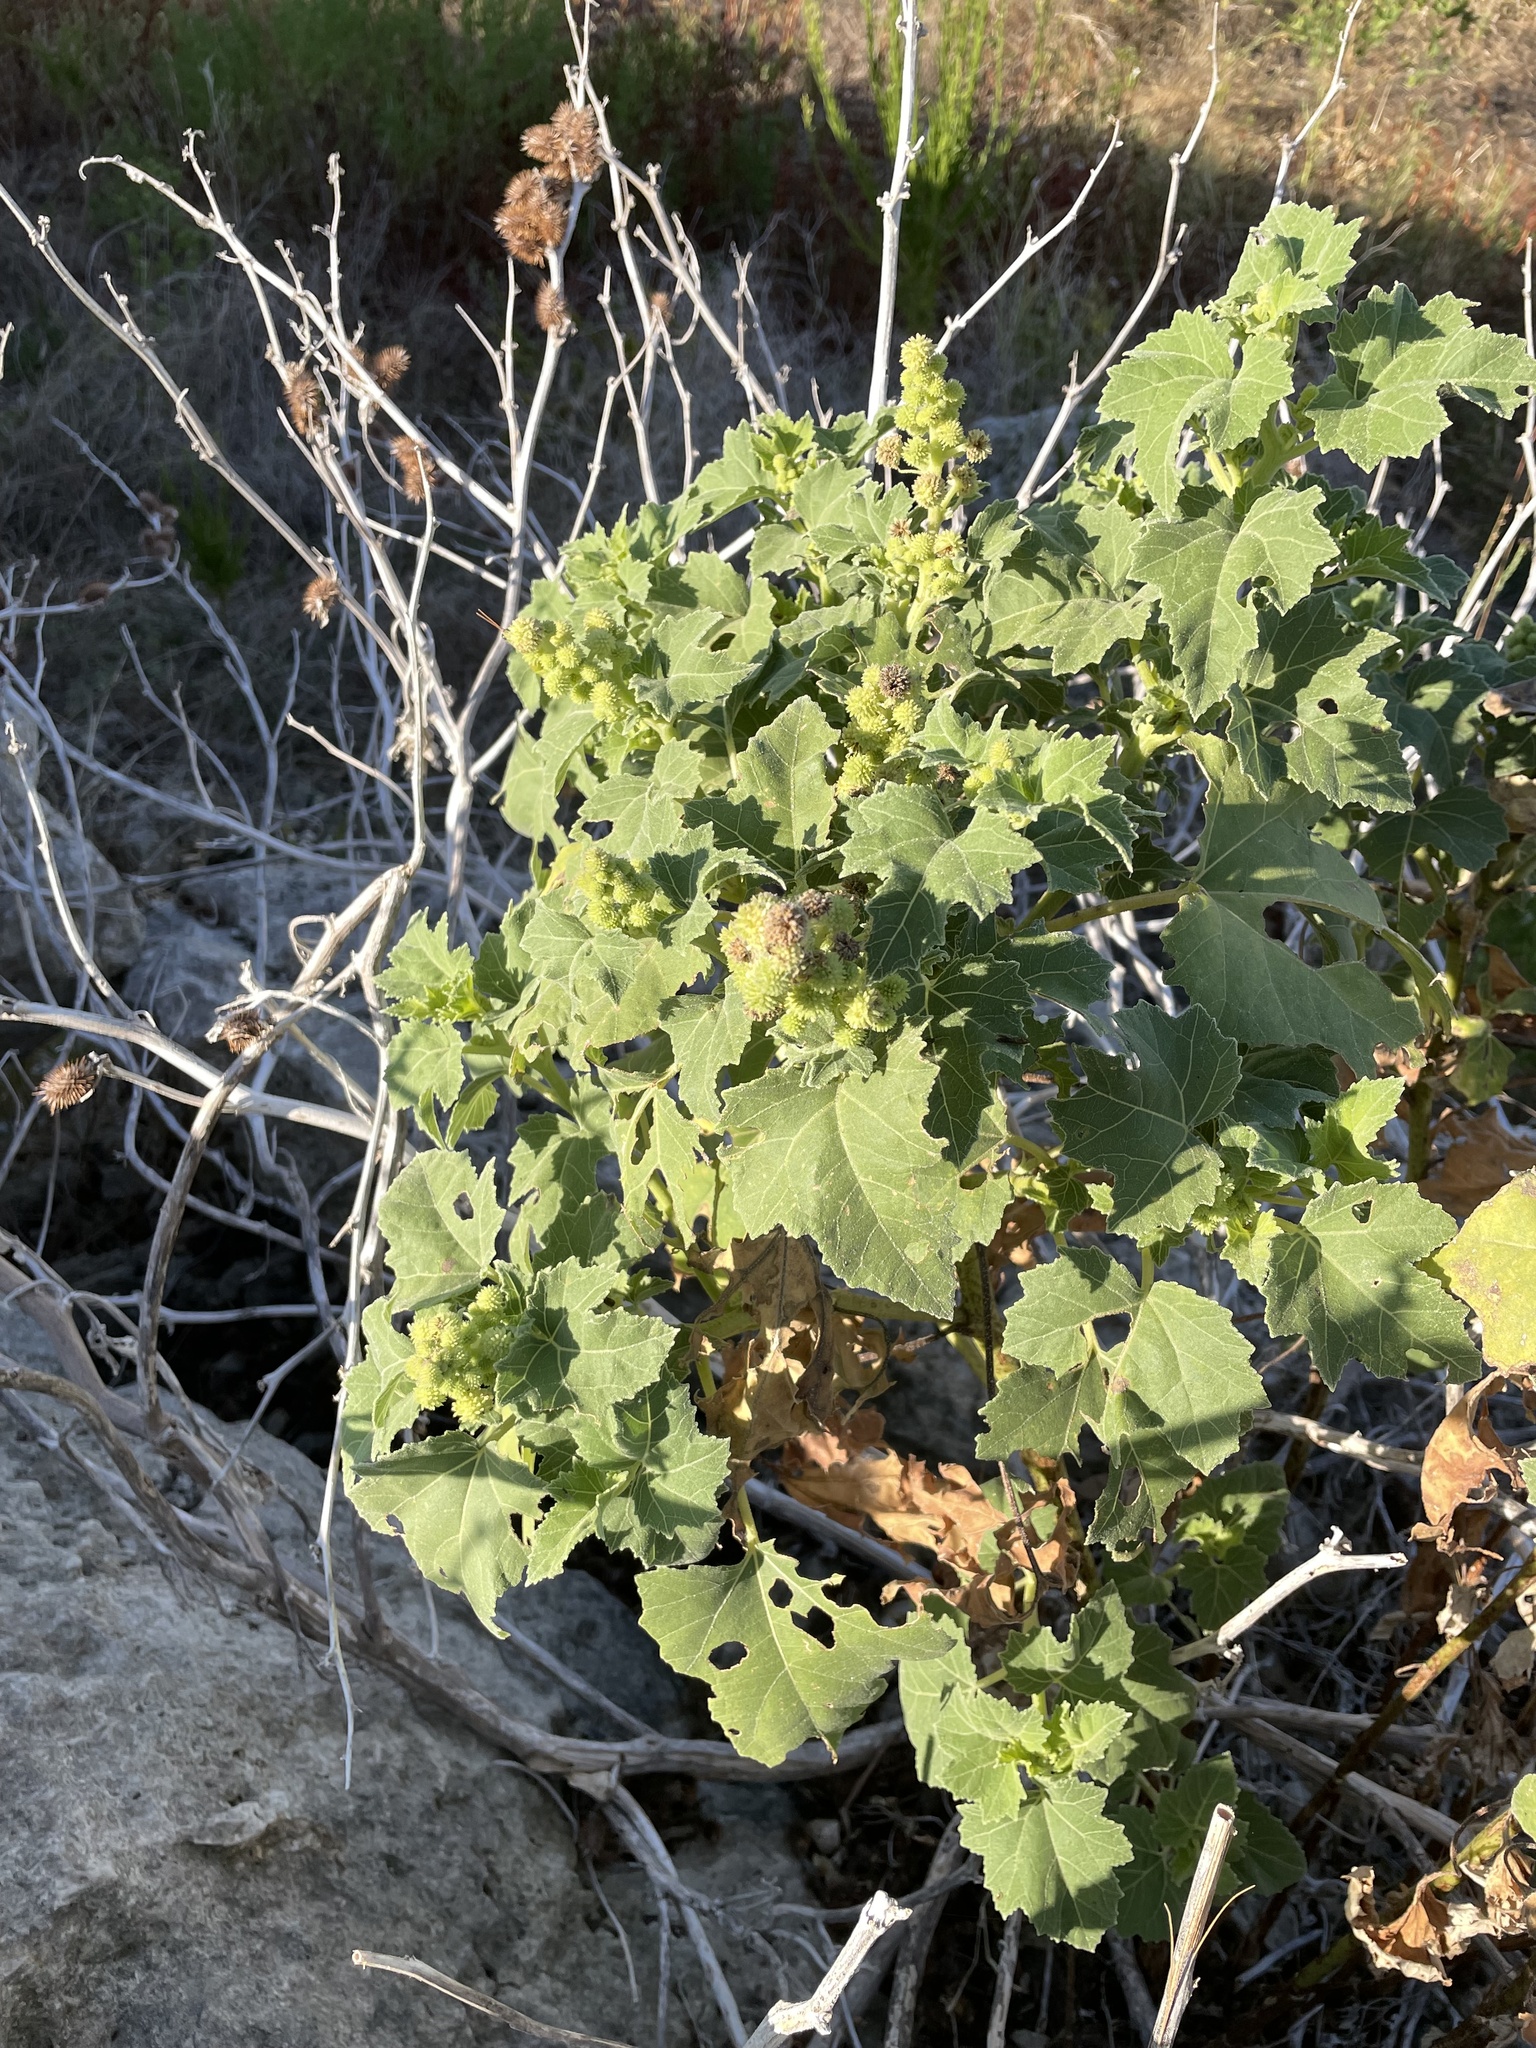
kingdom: Plantae
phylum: Tracheophyta
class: Magnoliopsida
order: Asterales
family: Asteraceae
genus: Xanthium
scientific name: Xanthium strumarium
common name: Rough cocklebur
